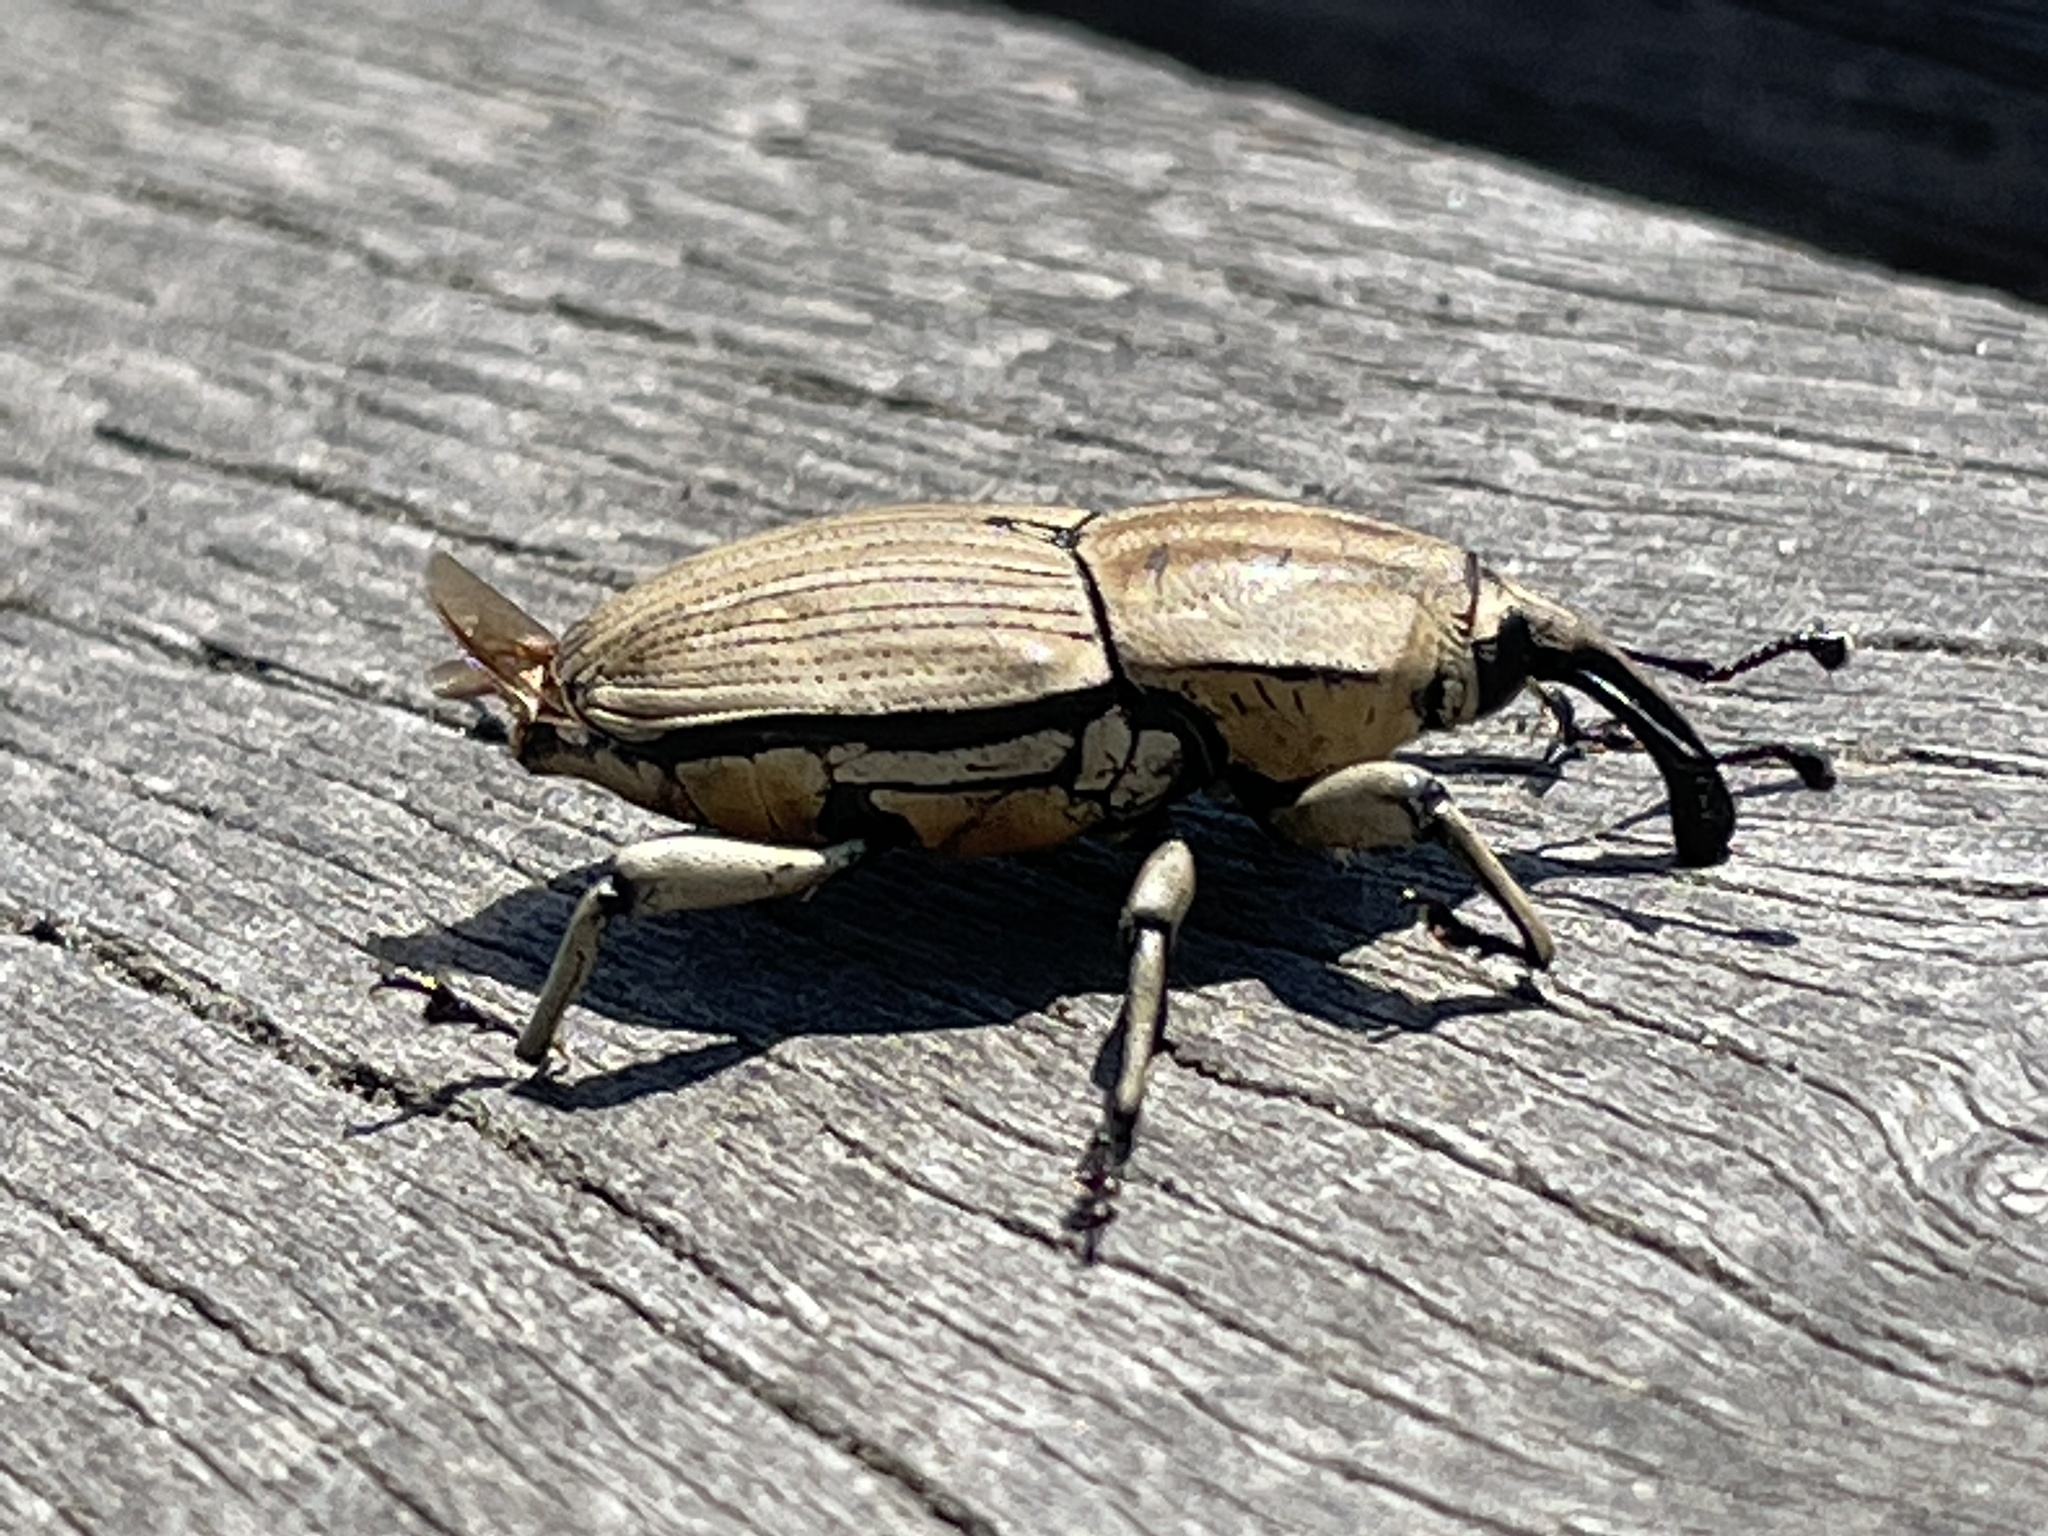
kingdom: Animalia
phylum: Arthropoda
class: Insecta
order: Coleoptera
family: Dryophthoridae
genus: Sphenophorus
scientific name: Sphenophorus aequalis
